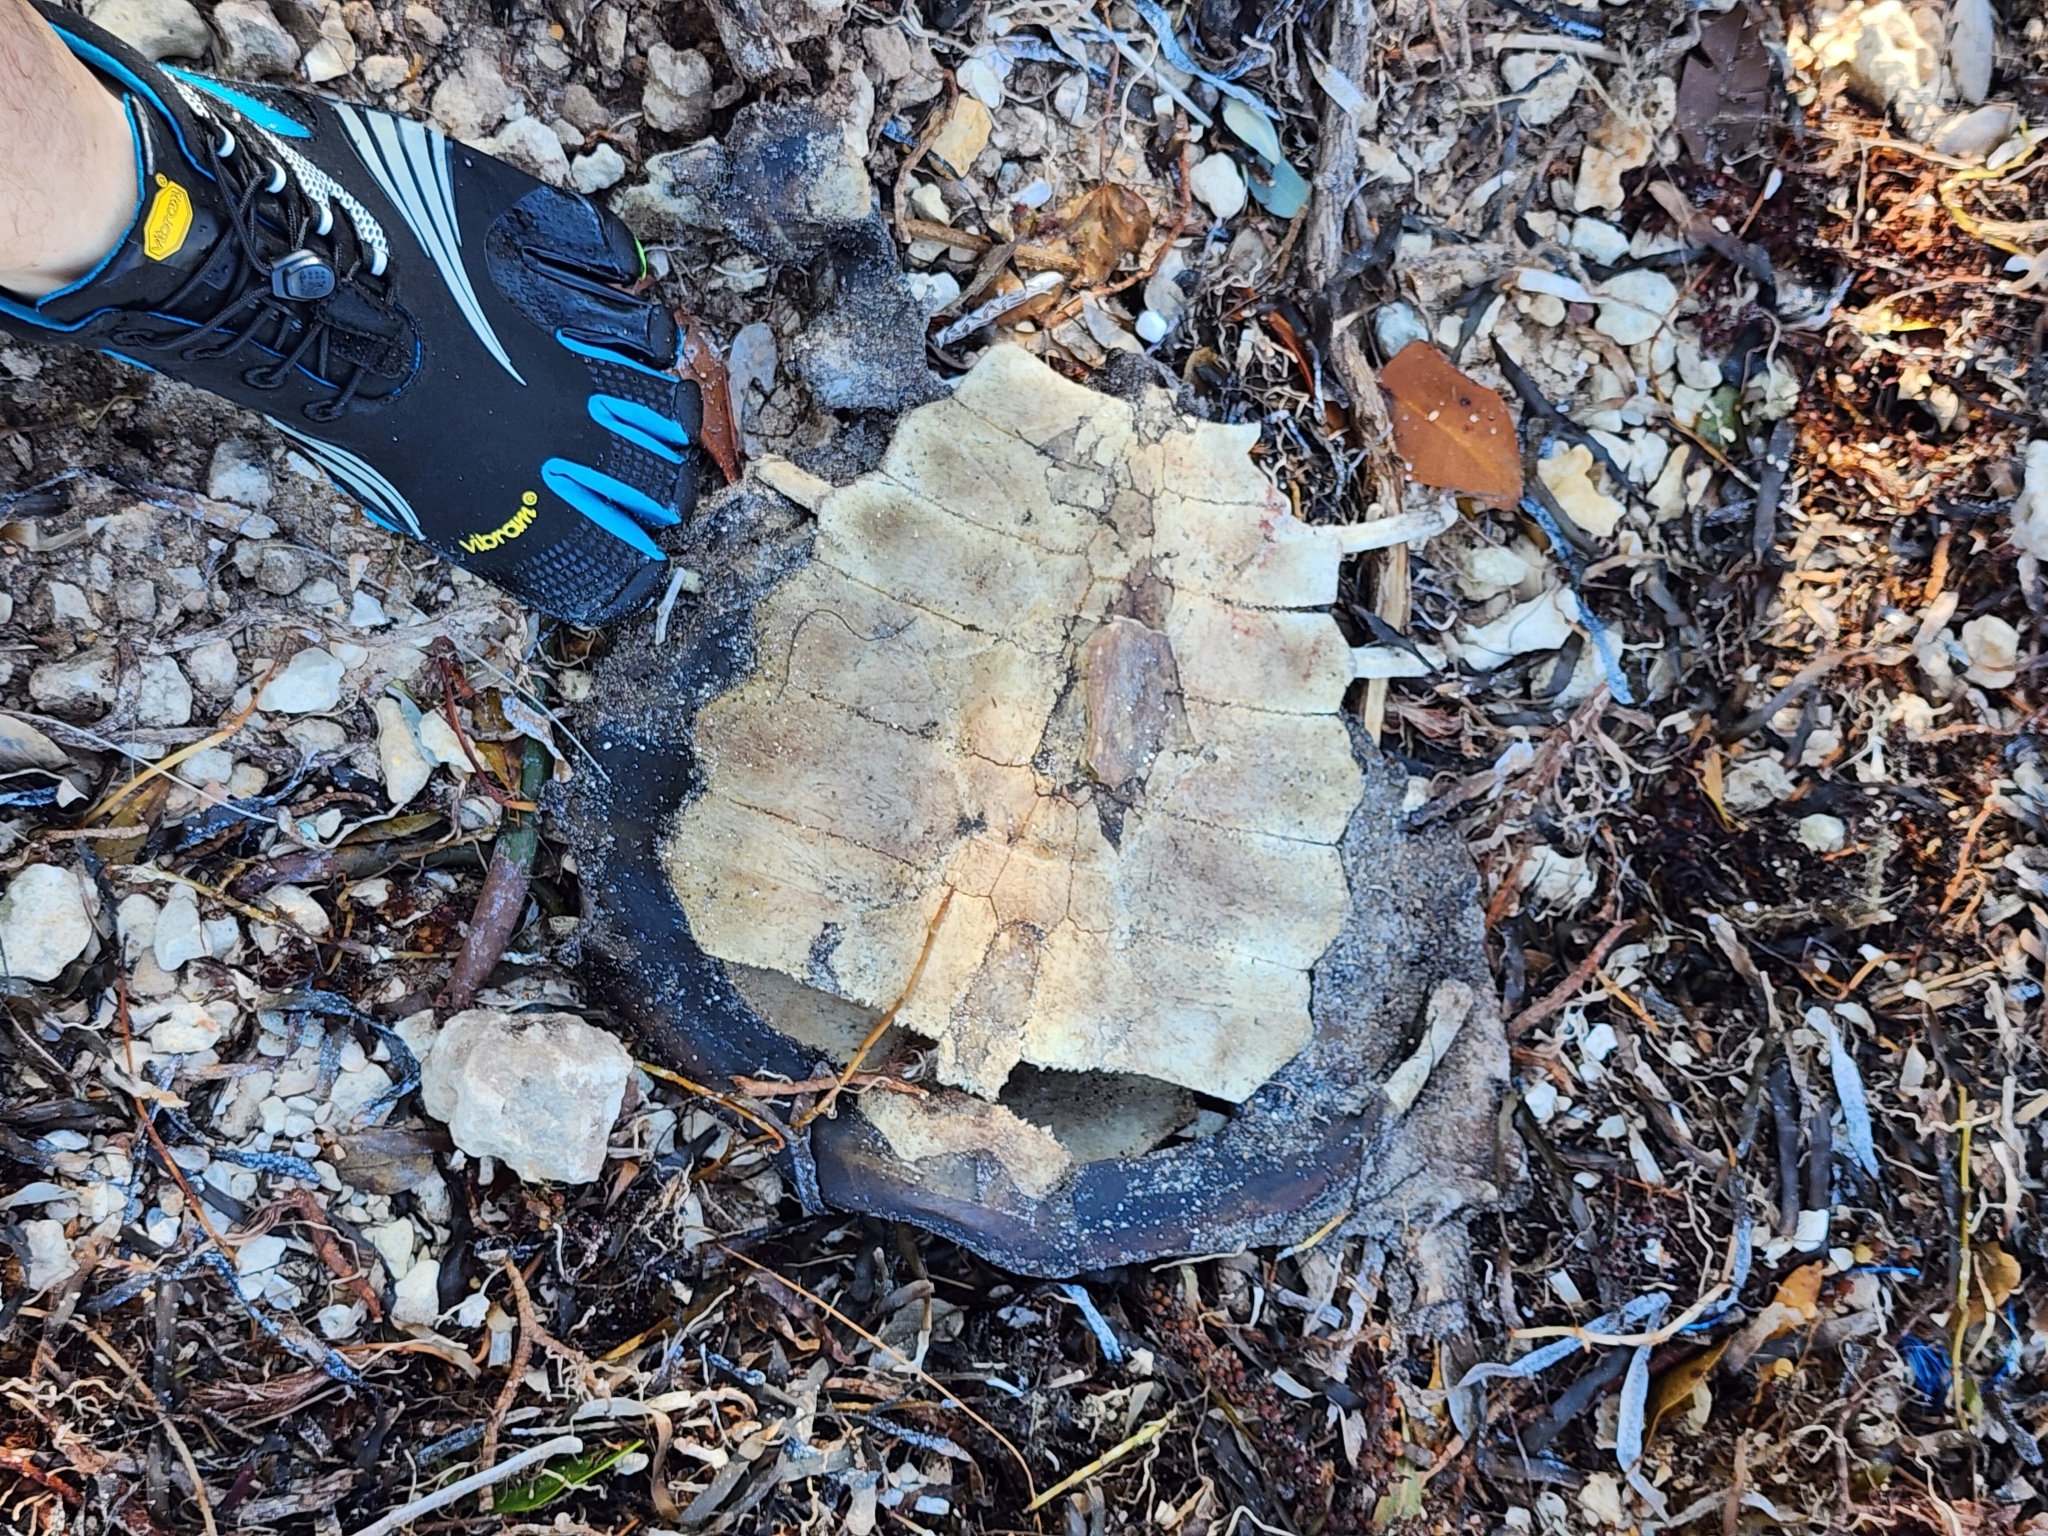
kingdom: Animalia
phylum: Chordata
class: Testudines
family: Cheloniidae
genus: Chelonia
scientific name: Chelonia mydas
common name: Green turtle
